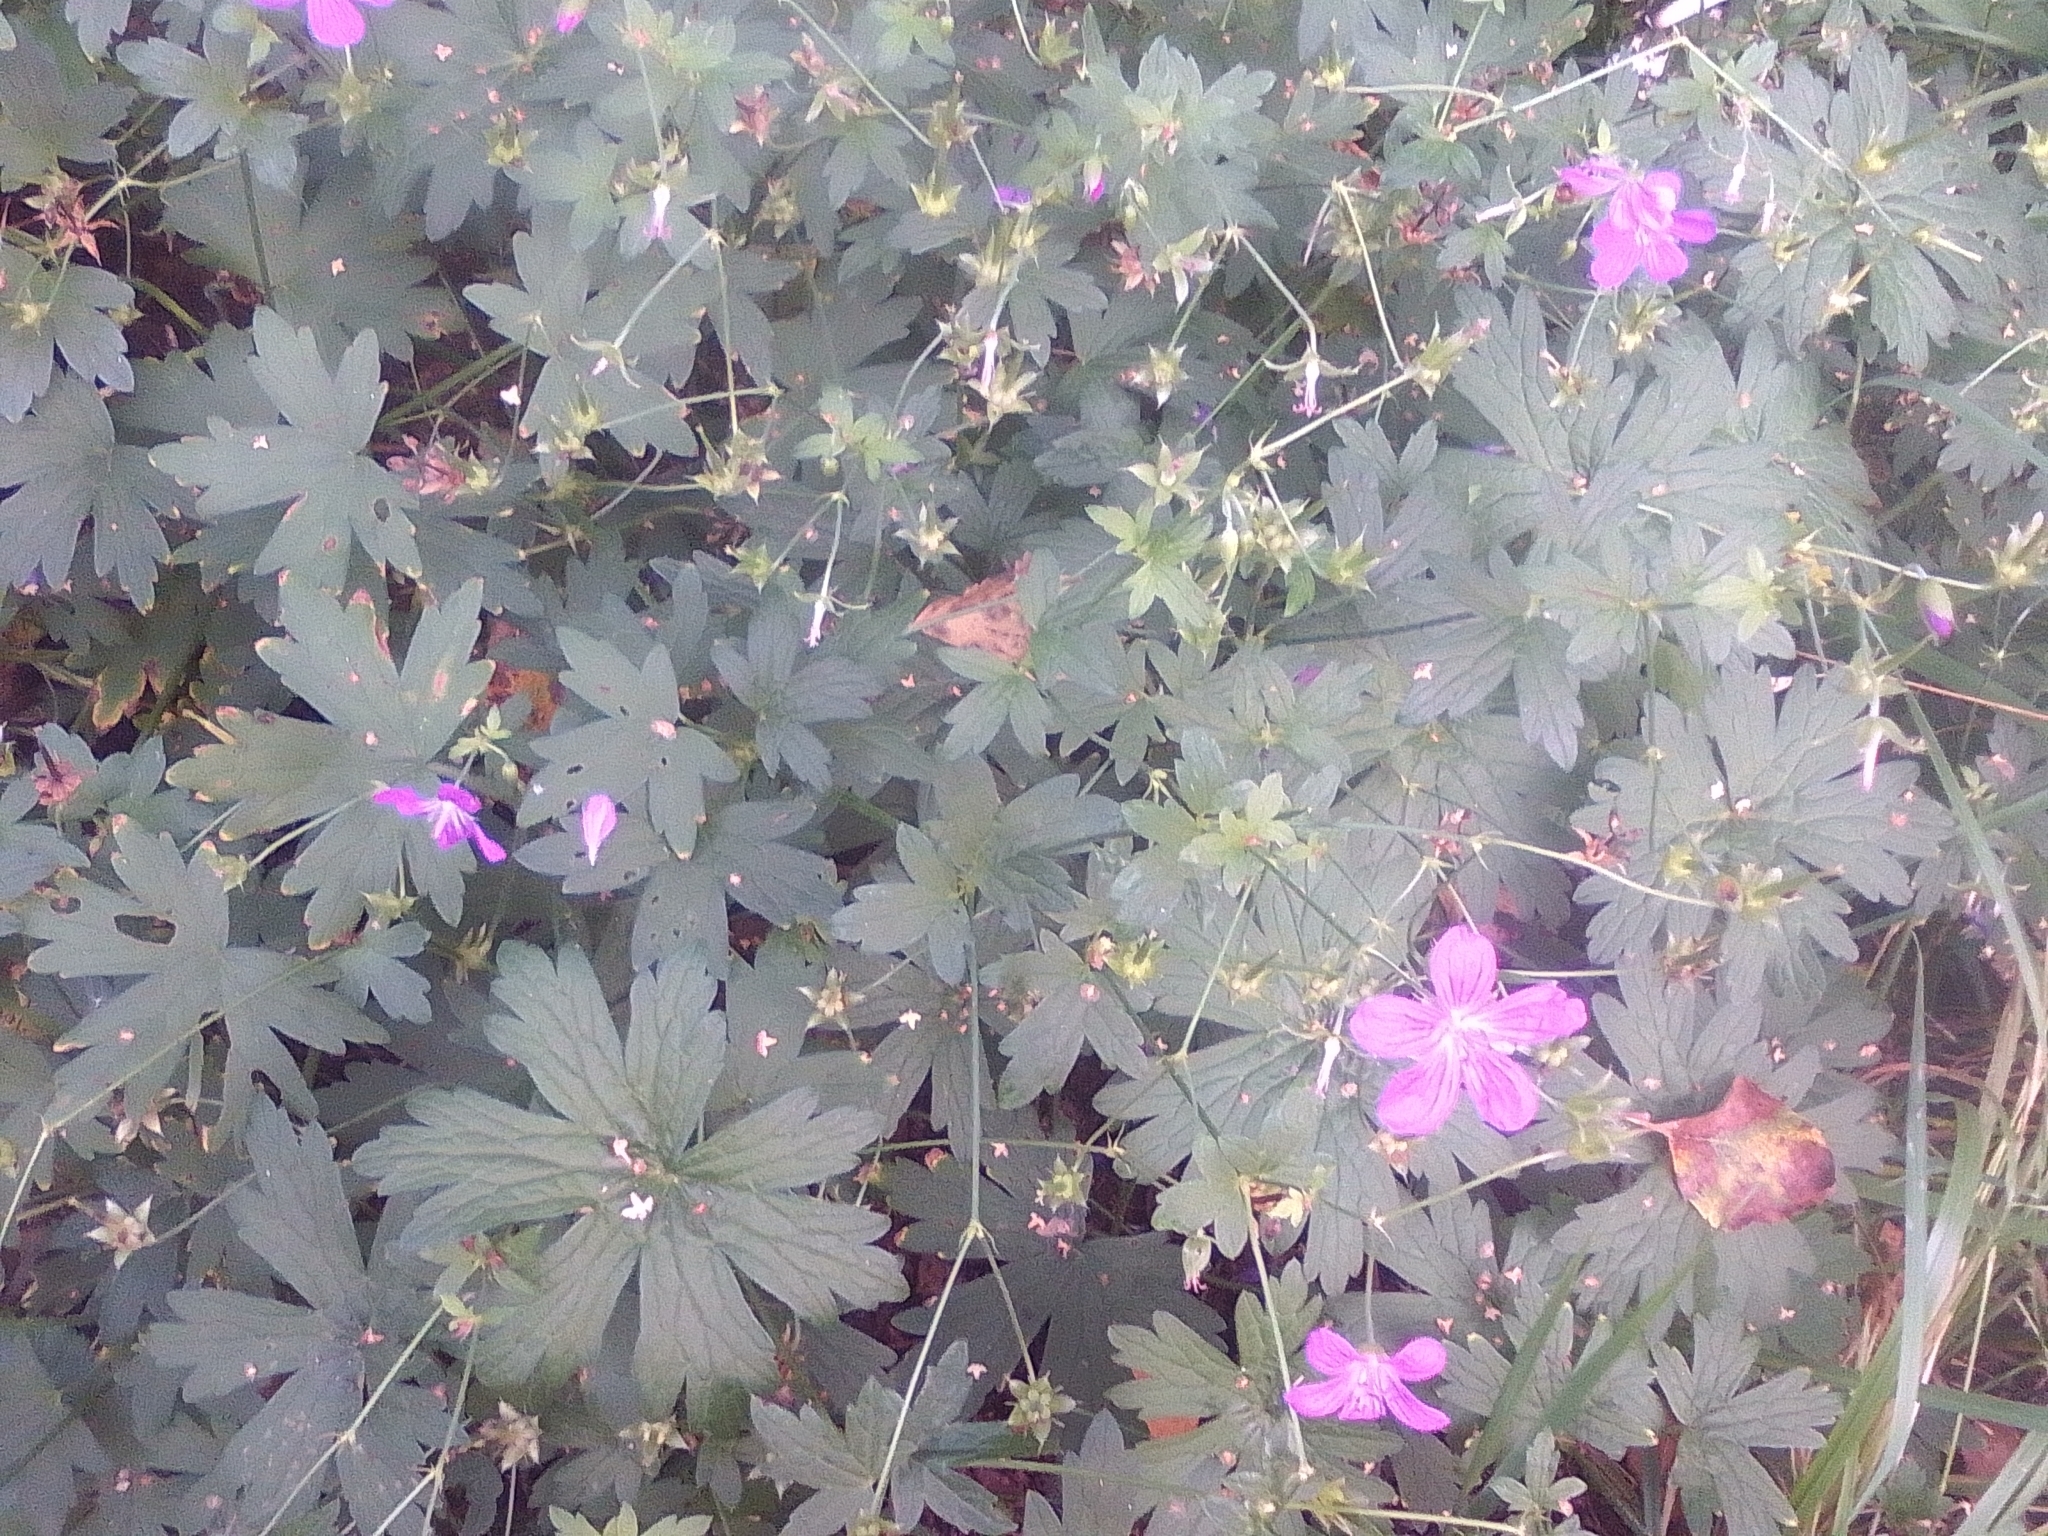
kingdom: Plantae
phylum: Tracheophyta
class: Magnoliopsida
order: Geraniales
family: Geraniaceae
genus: Geranium
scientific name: Geranium palustre
